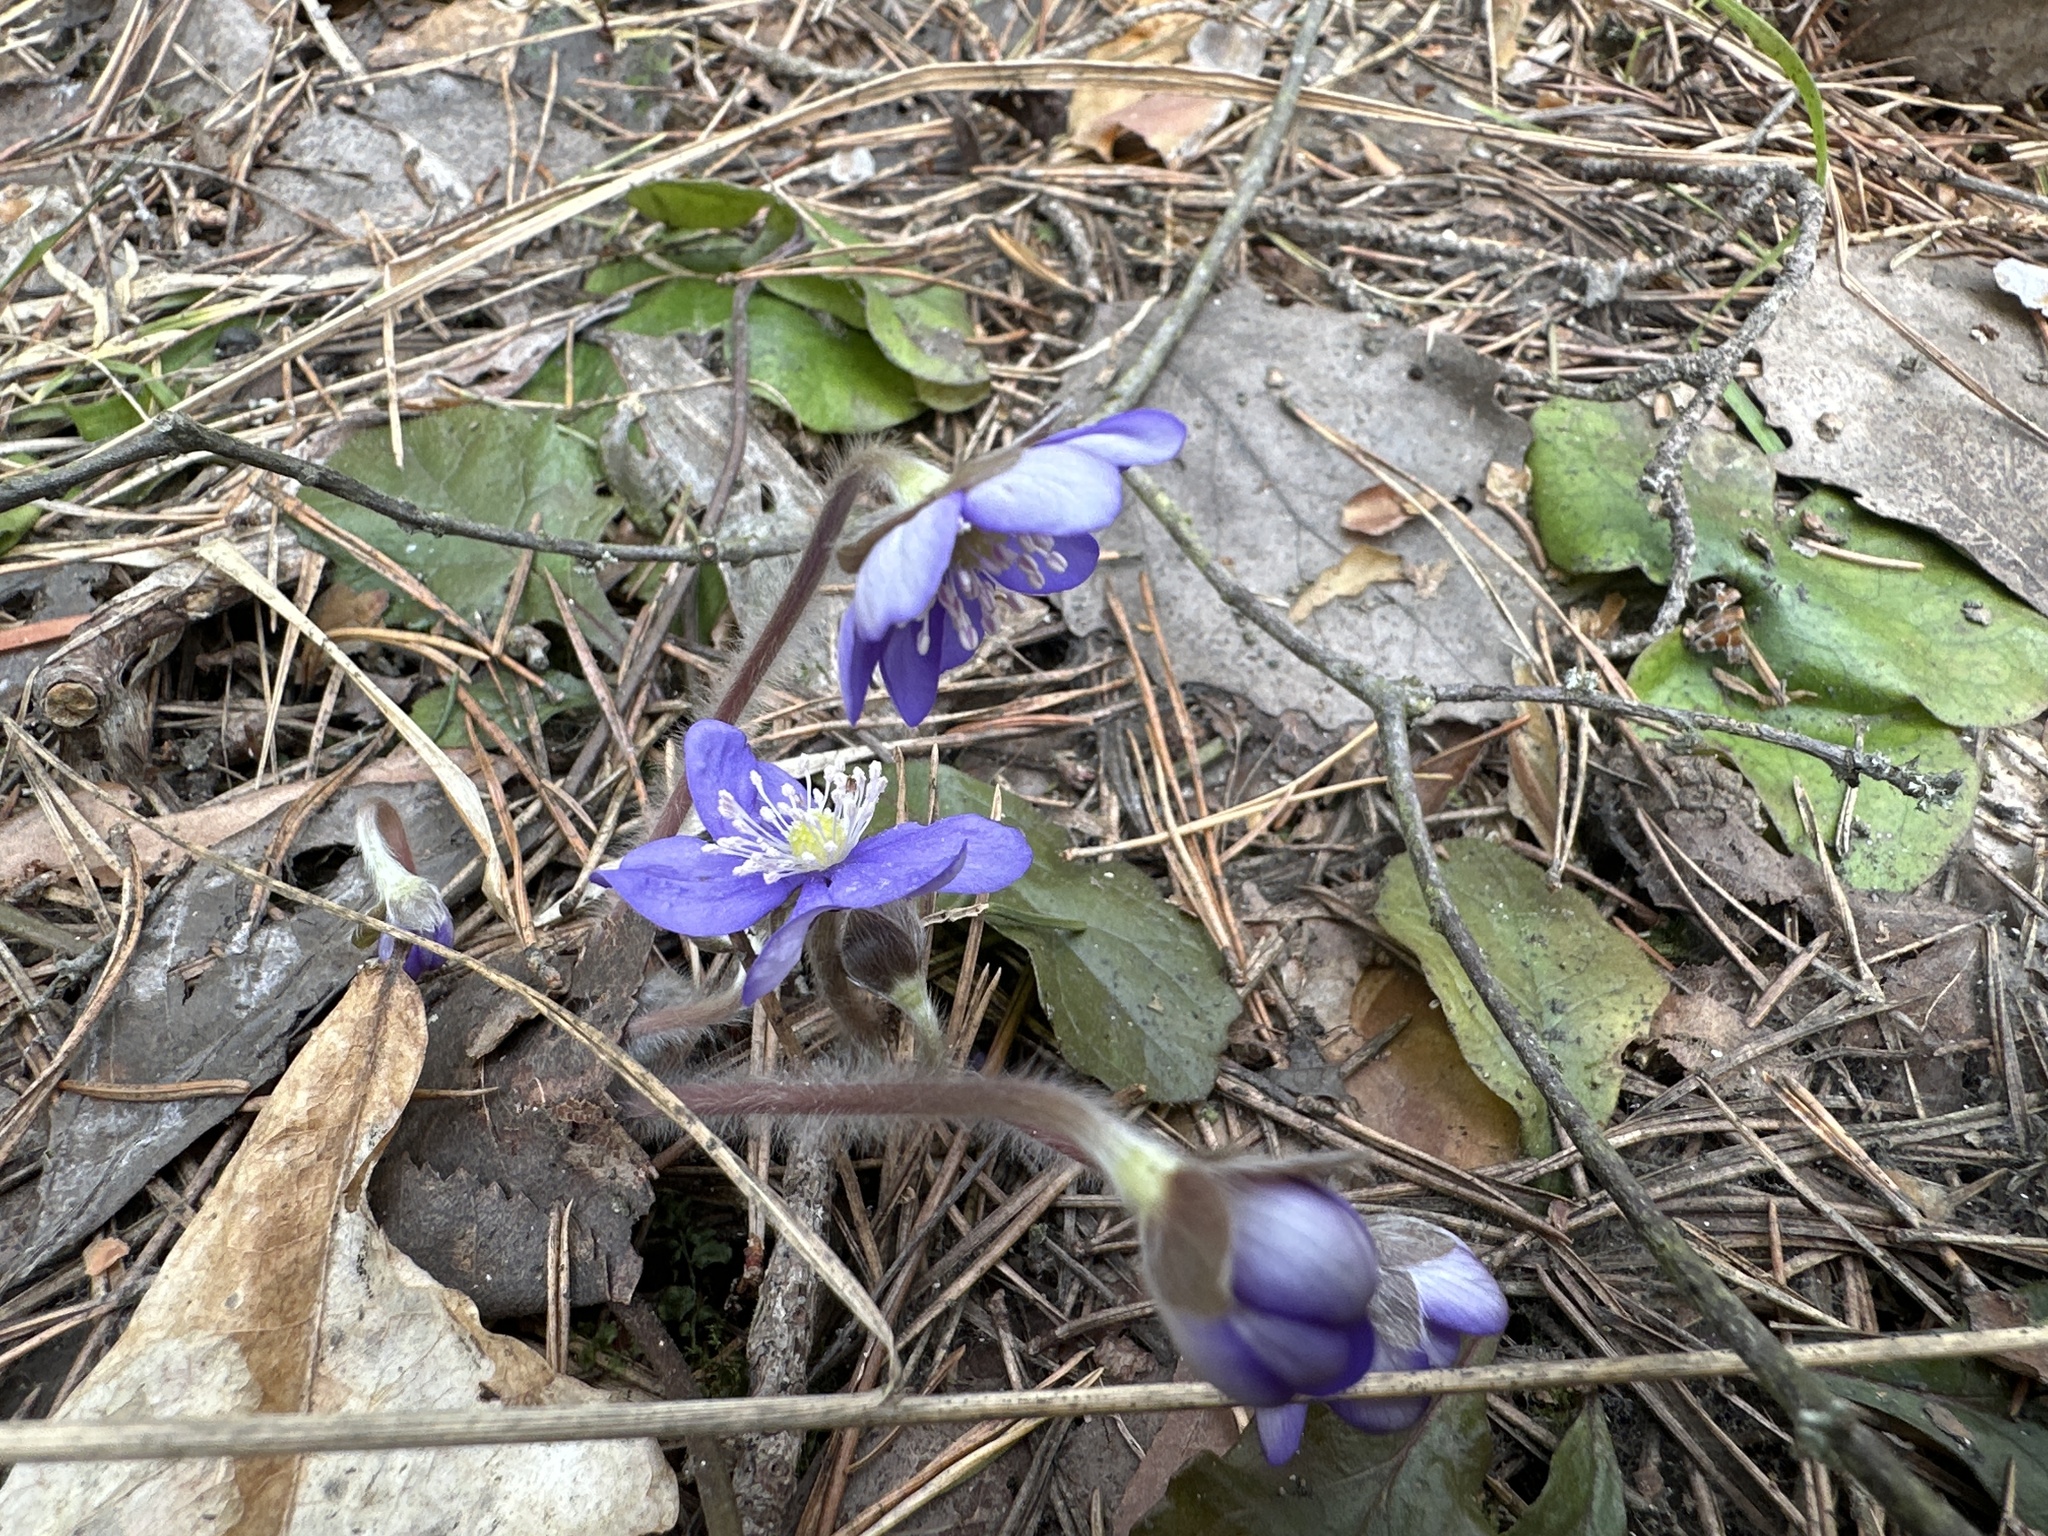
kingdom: Plantae
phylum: Tracheophyta
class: Magnoliopsida
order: Ranunculales
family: Ranunculaceae
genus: Hepatica
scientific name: Hepatica nobilis
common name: Liverleaf
